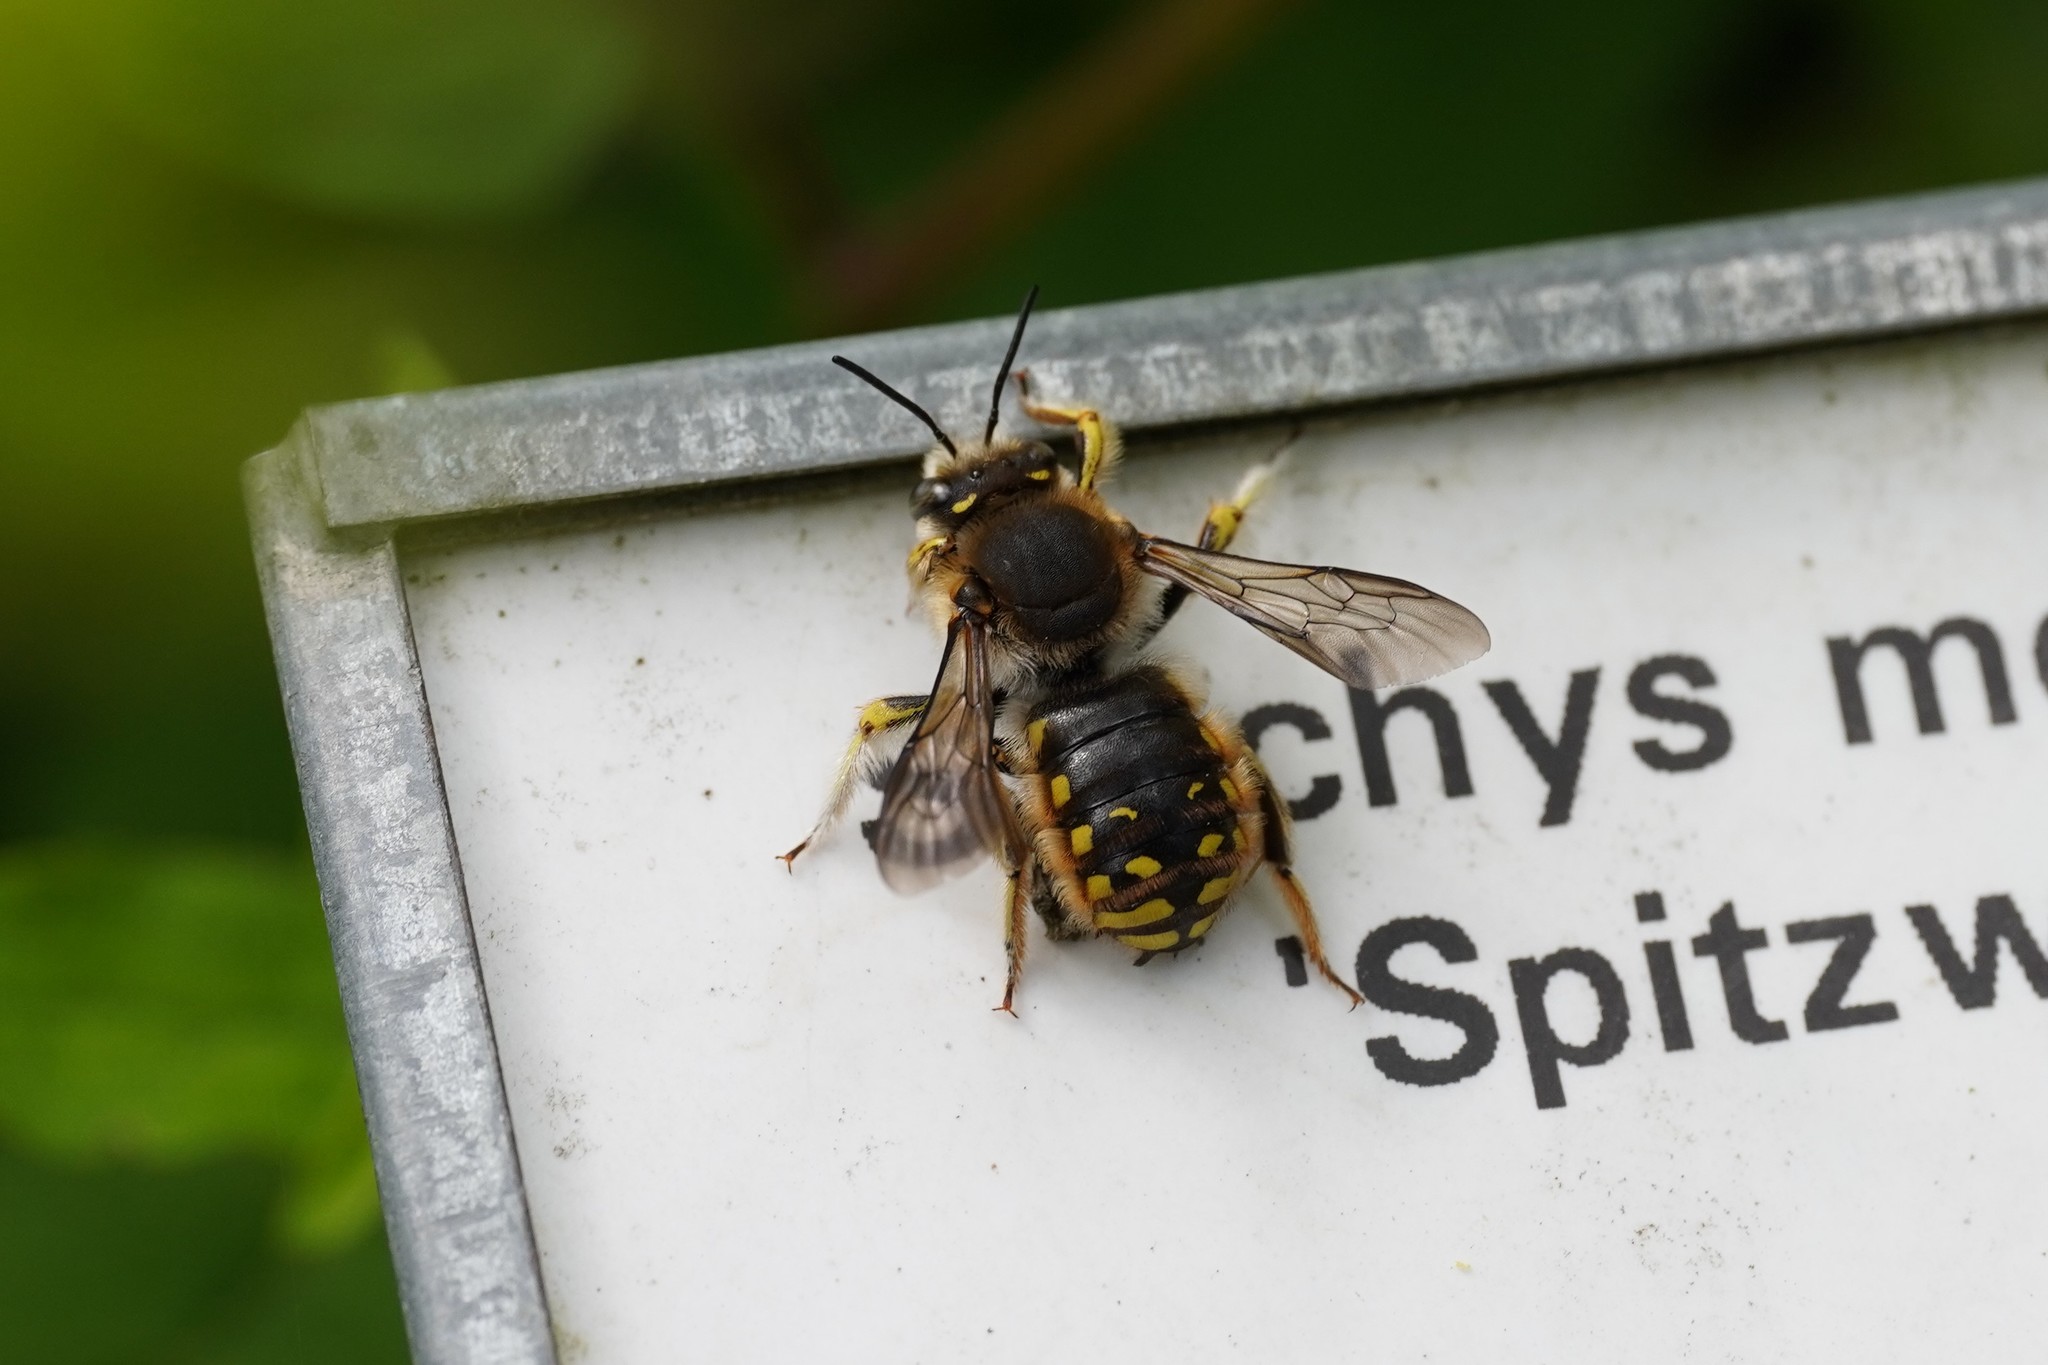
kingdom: Animalia
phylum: Arthropoda
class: Insecta
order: Hymenoptera
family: Megachilidae
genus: Anthidium
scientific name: Anthidium manicatum
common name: Wool carder bee
